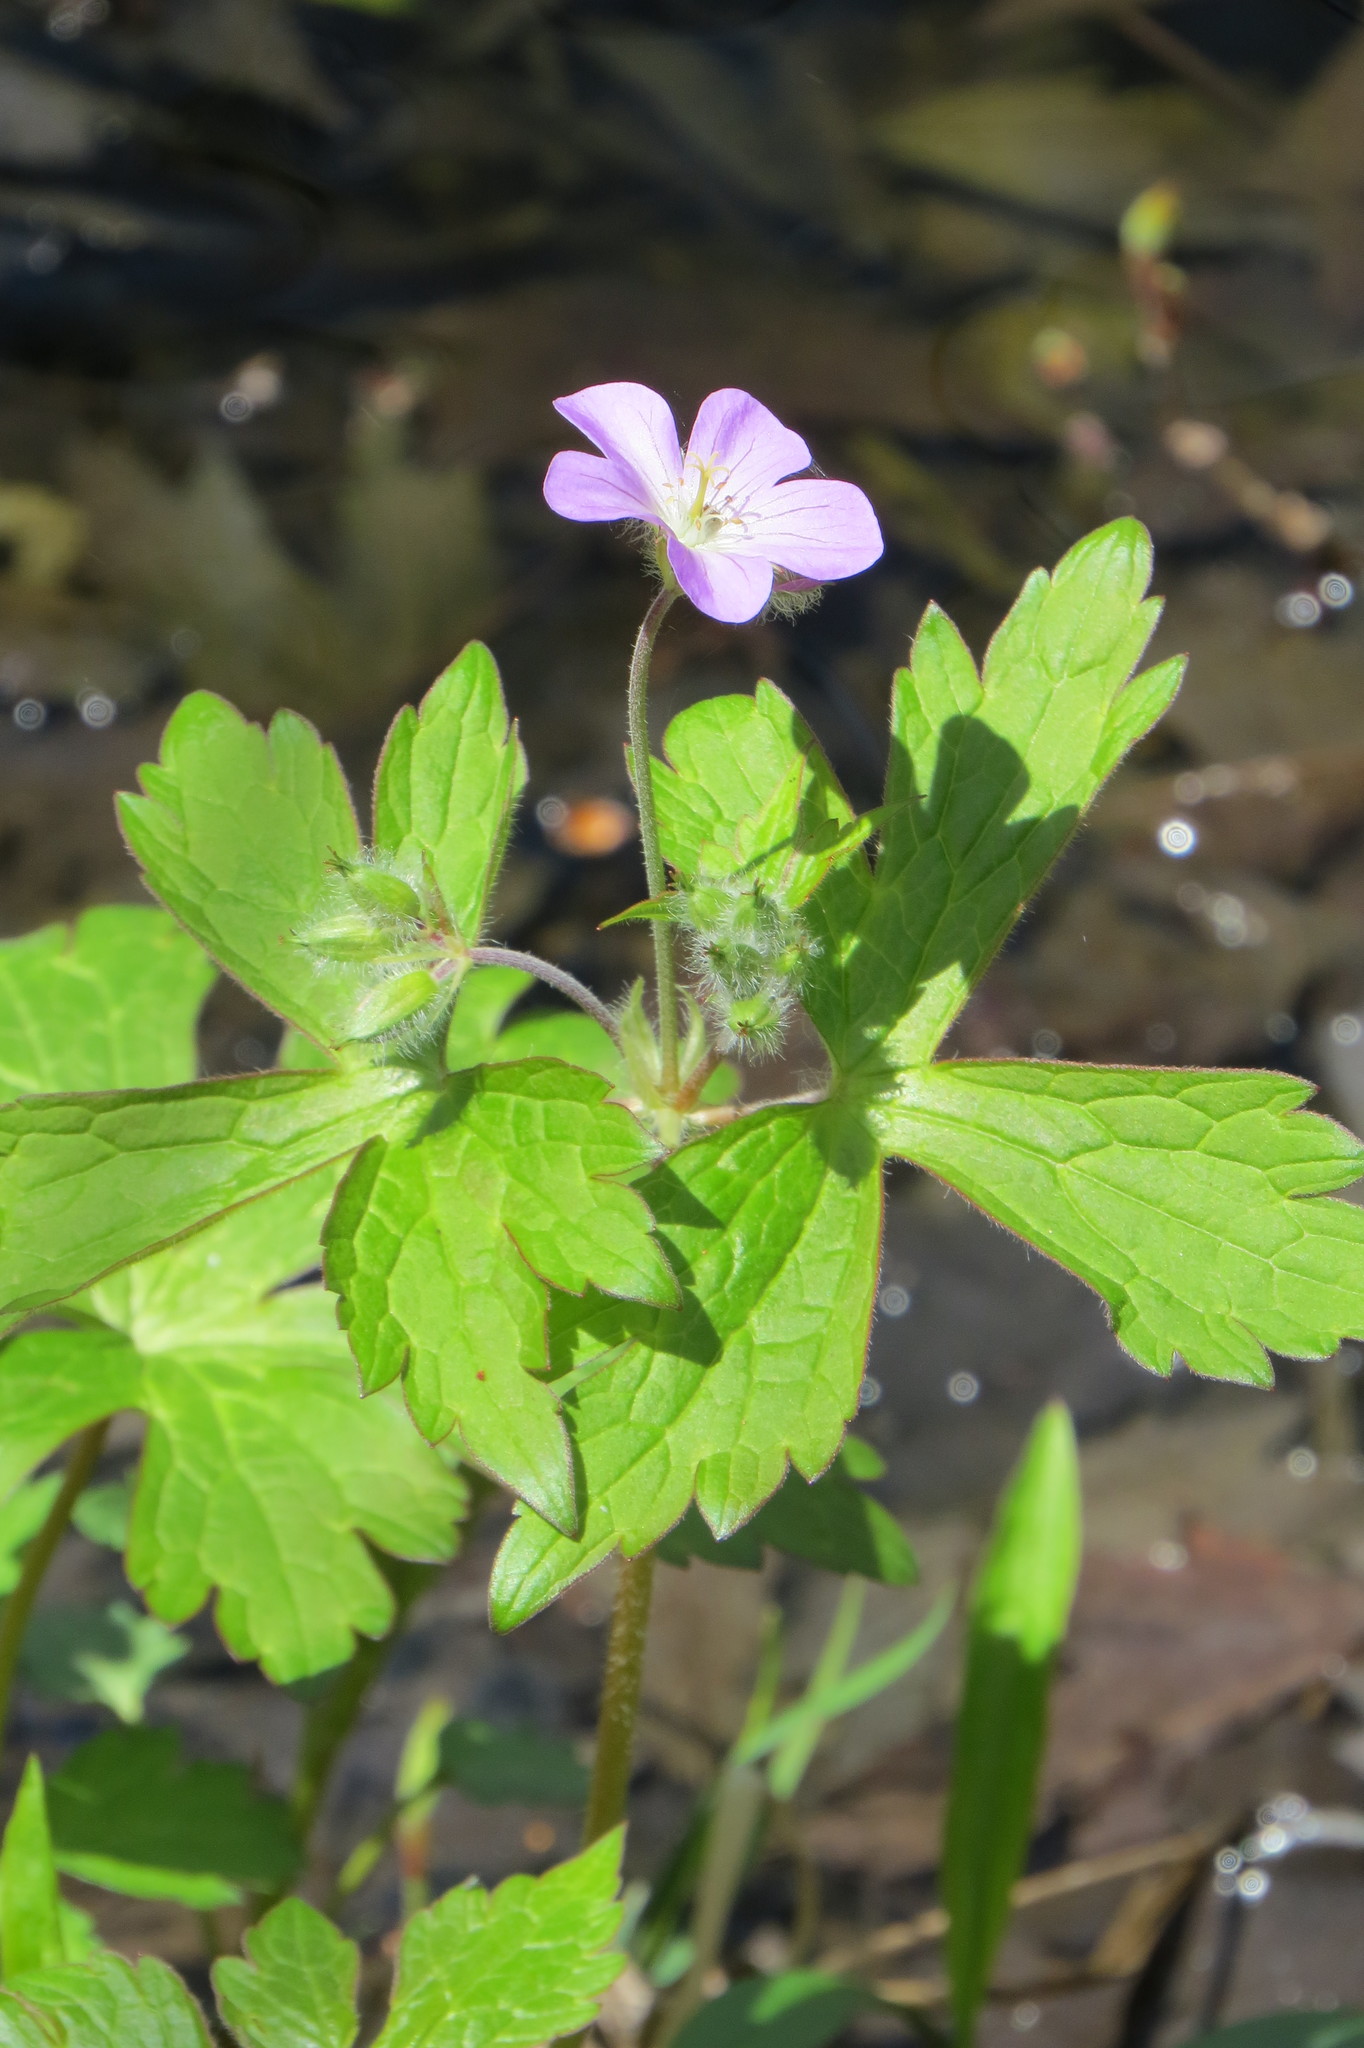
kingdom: Plantae
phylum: Tracheophyta
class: Magnoliopsida
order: Geraniales
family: Geraniaceae
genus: Geranium
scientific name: Geranium maculatum
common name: Spotted geranium
